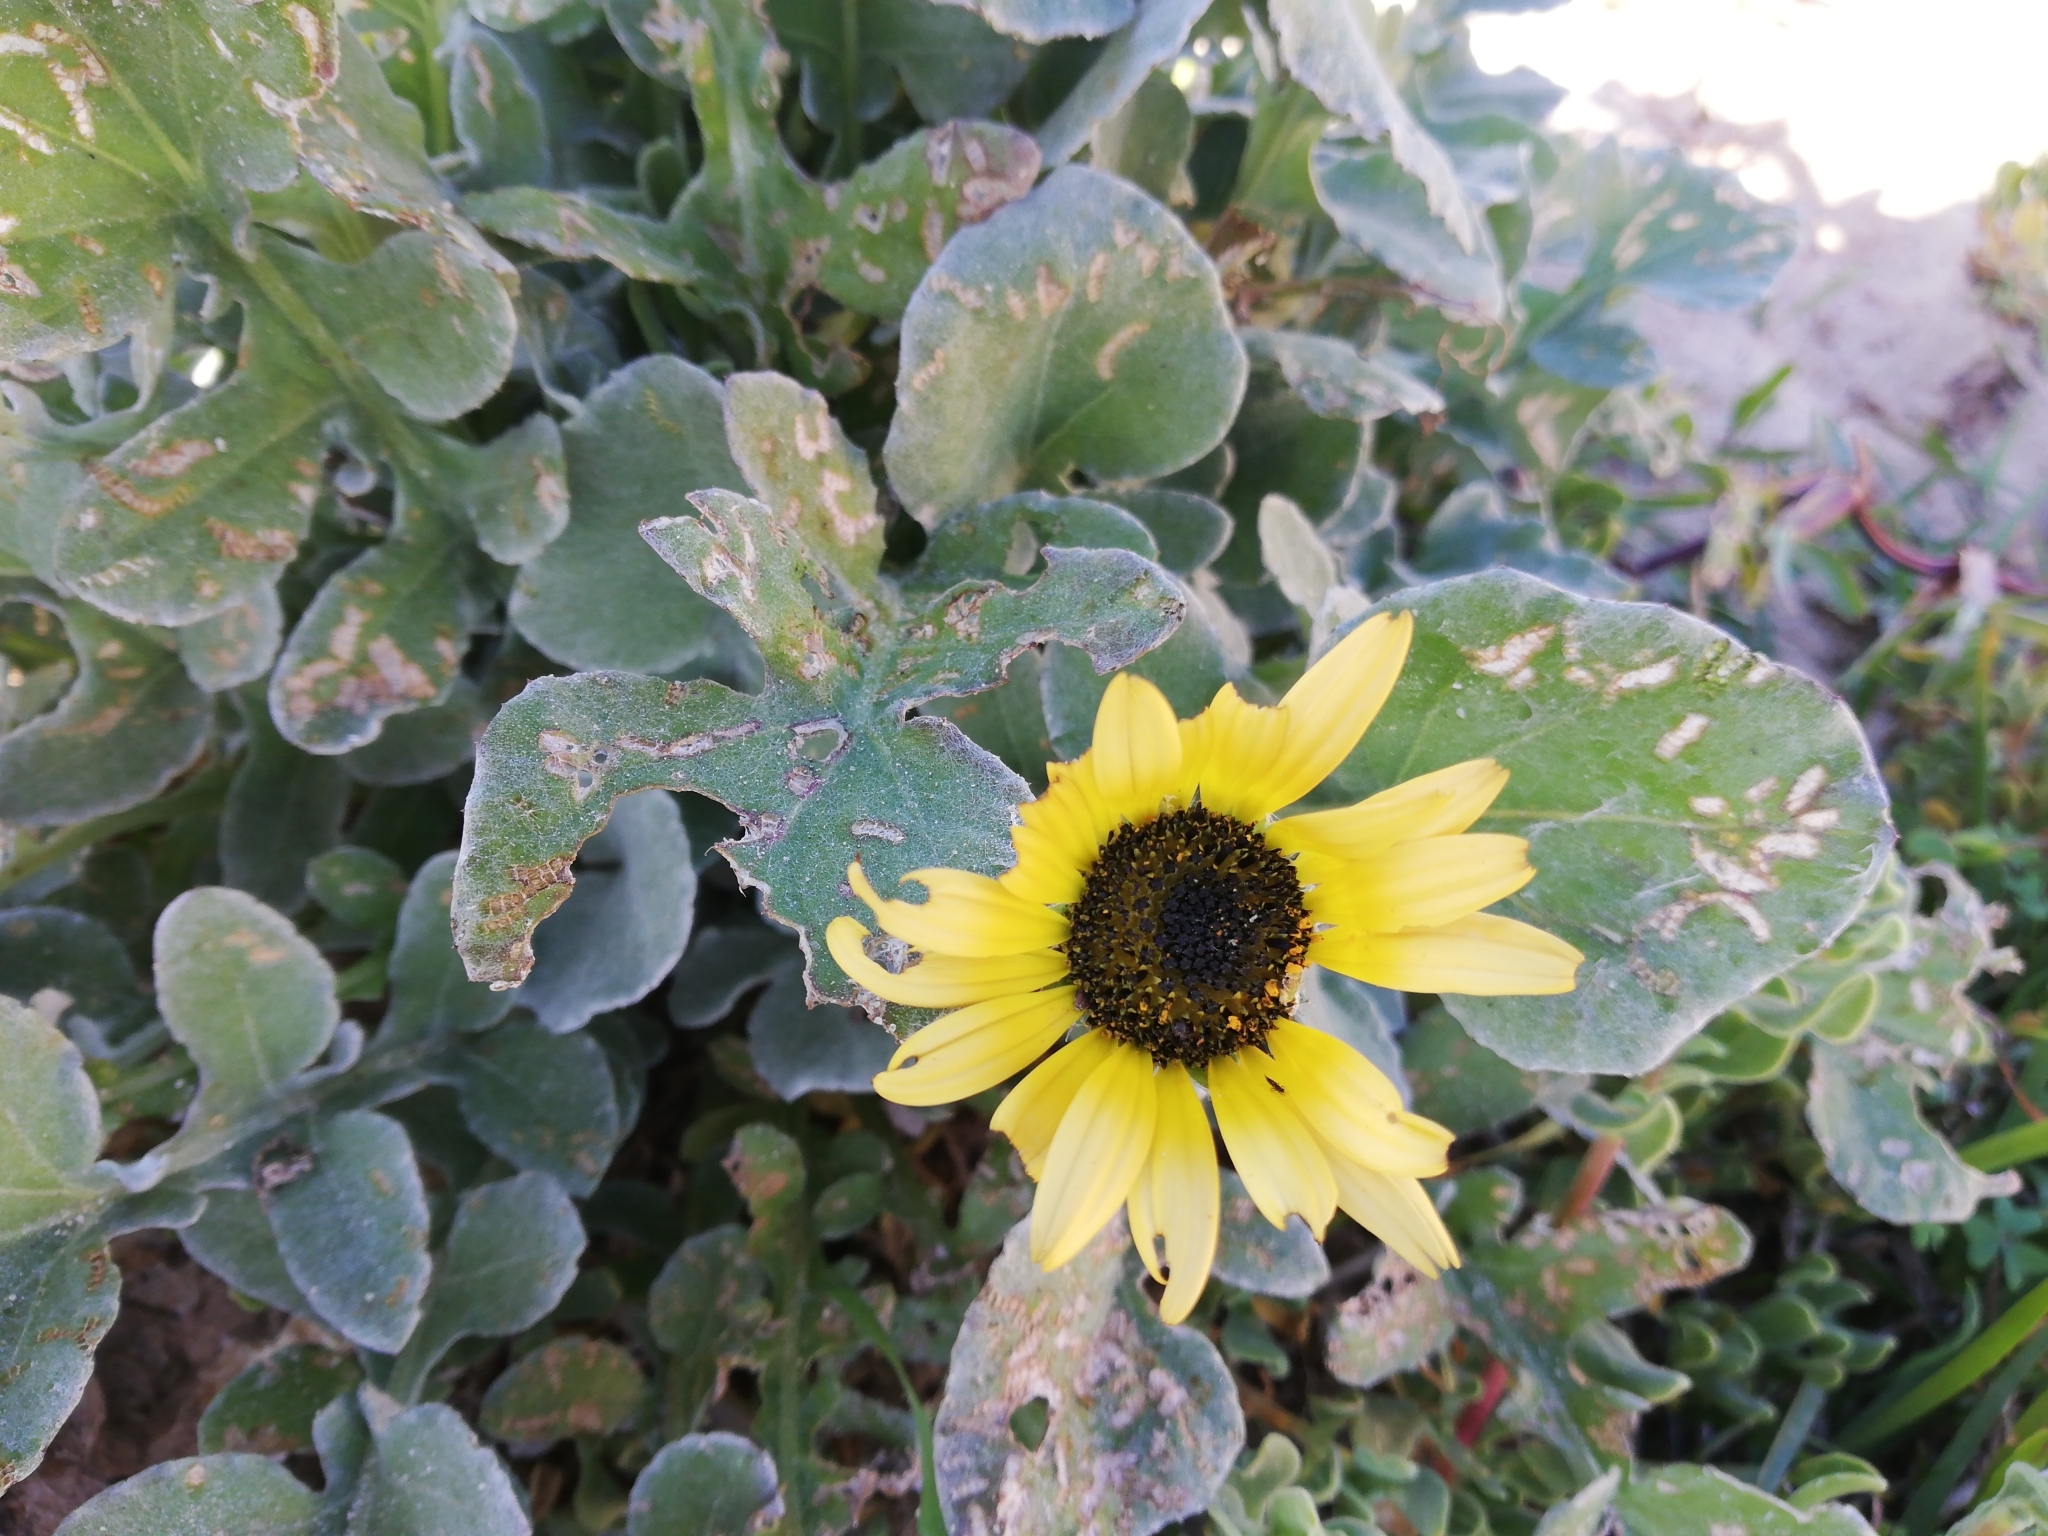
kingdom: Plantae
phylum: Tracheophyta
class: Magnoliopsida
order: Asterales
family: Asteraceae
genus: Arctotheca
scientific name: Arctotheca calendula
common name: Capeweed
